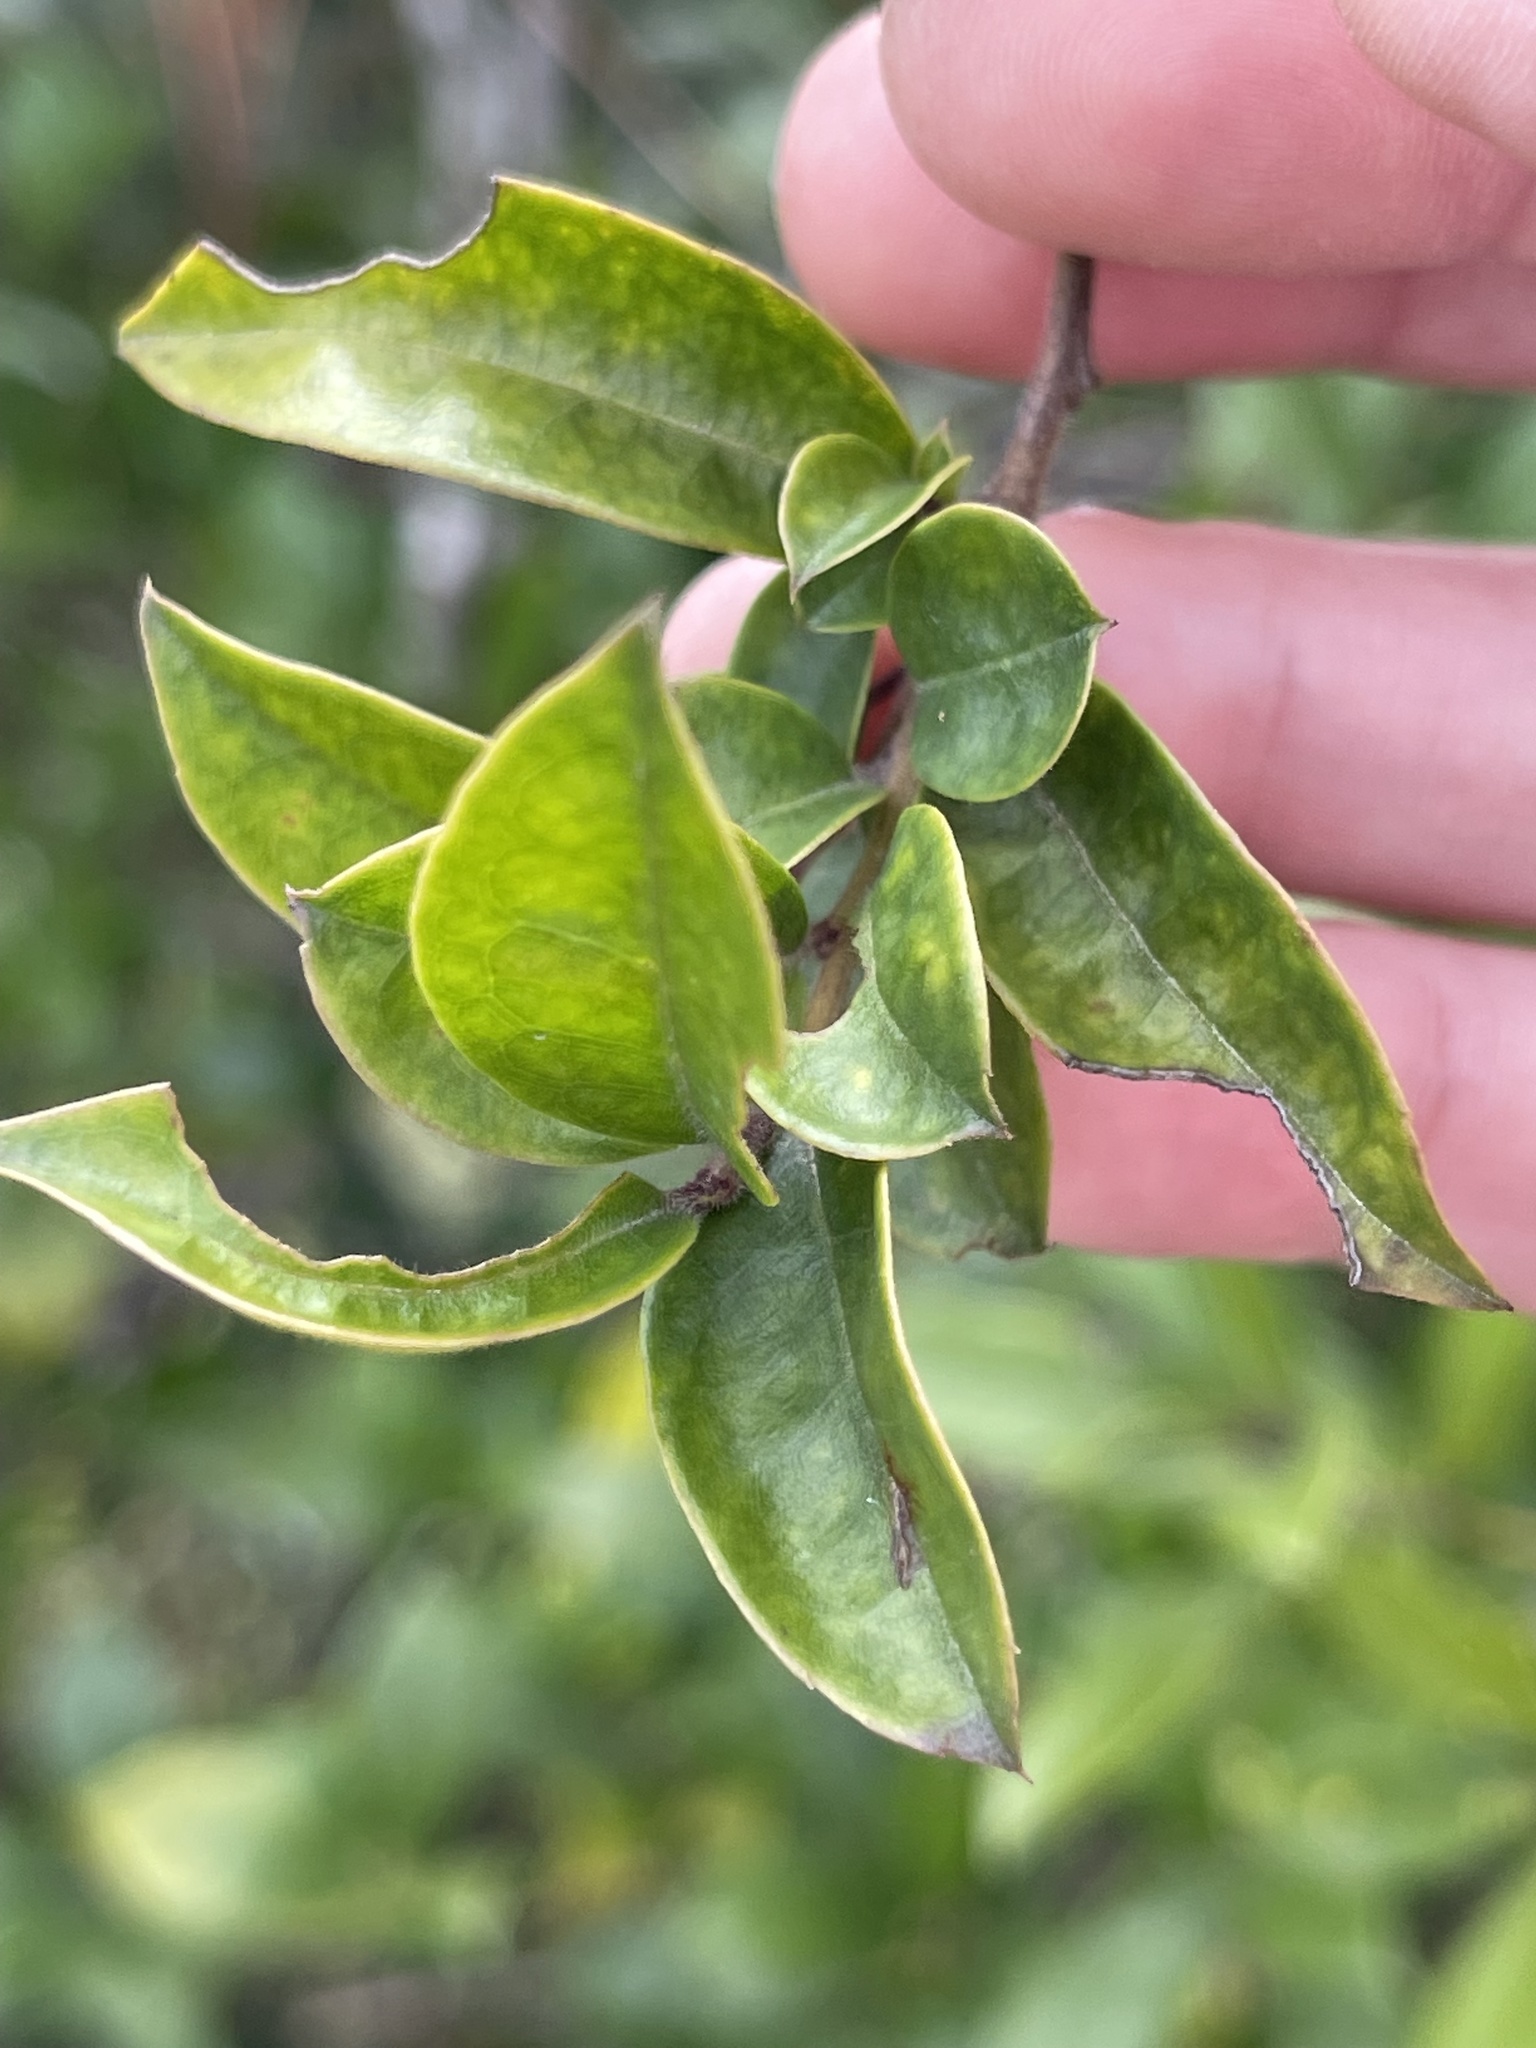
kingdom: Plantae
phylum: Tracheophyta
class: Magnoliopsida
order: Aquifoliales
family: Aquifoliaceae
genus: Ilex
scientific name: Ilex pubescens
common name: Pubescent holly
